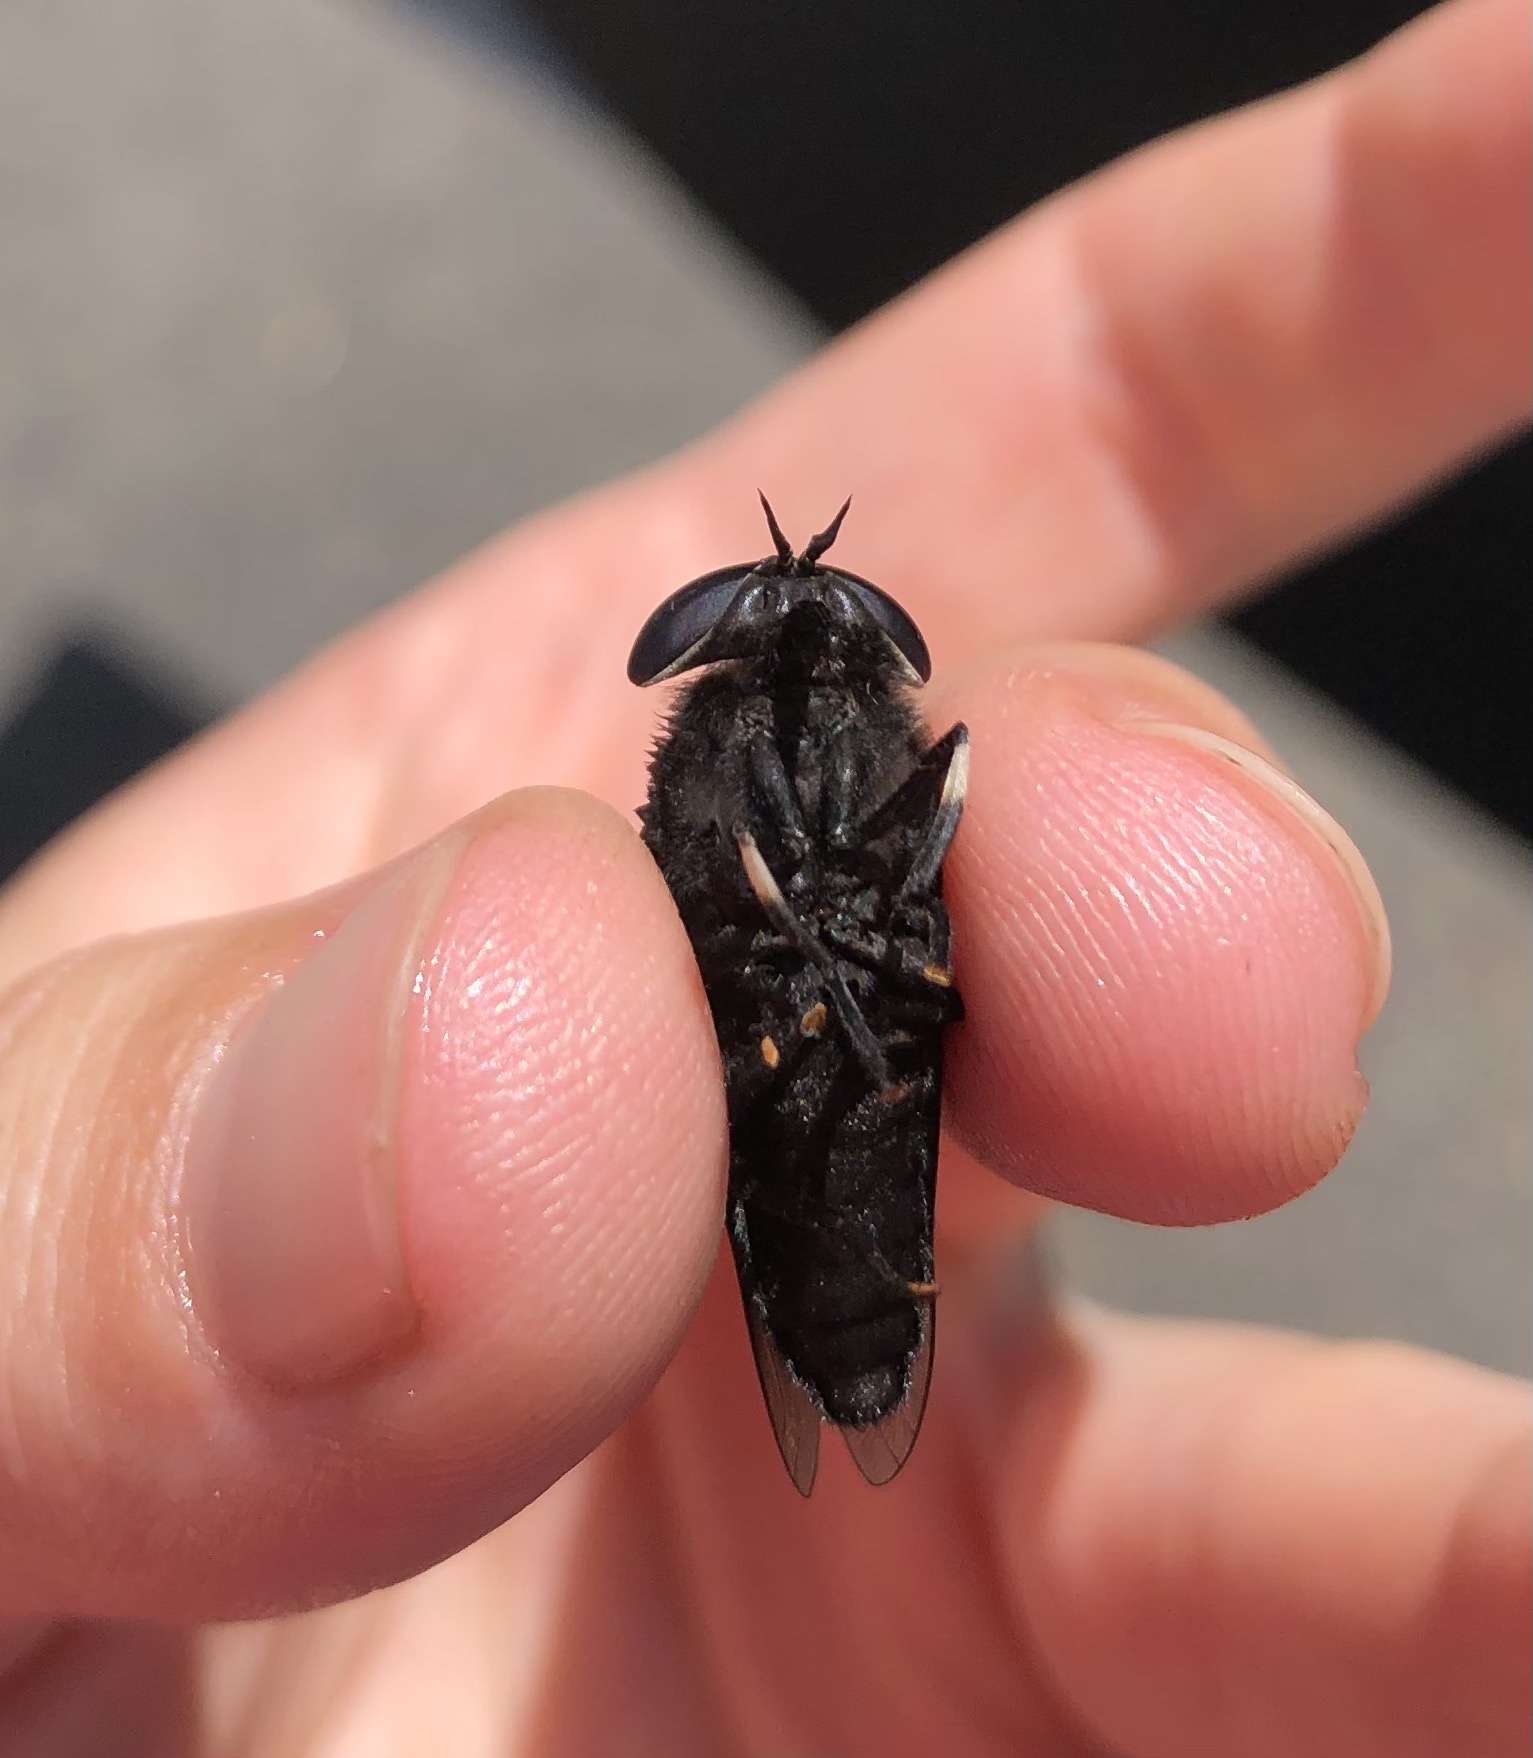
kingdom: Animalia
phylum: Arthropoda
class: Insecta
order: Diptera
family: Tabanidae
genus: Tabanus
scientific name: Tabanus punctifer
